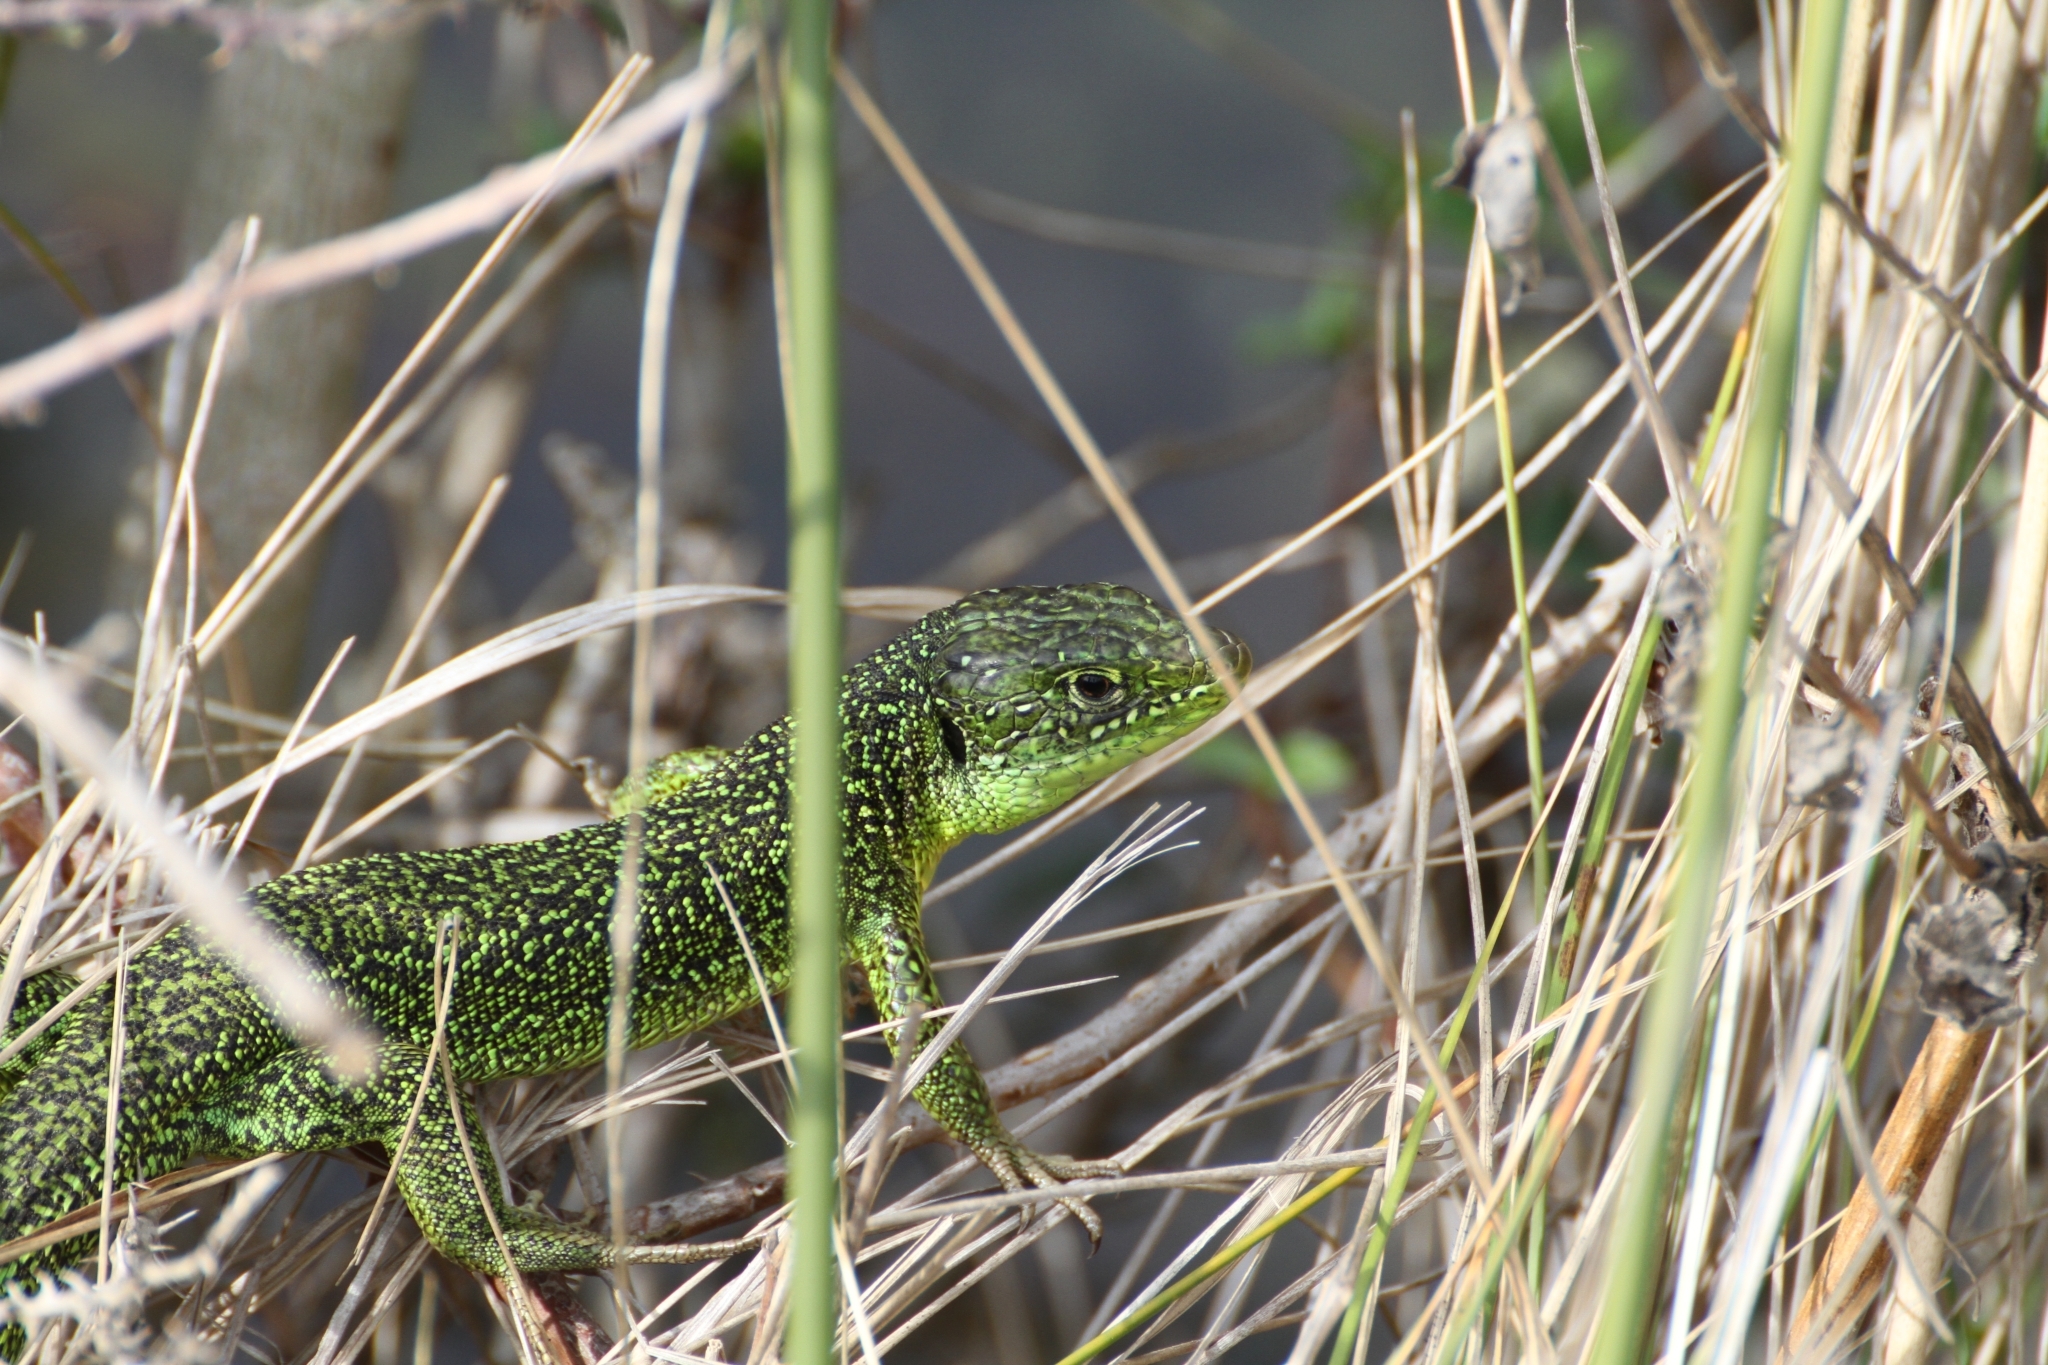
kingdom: Animalia
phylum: Chordata
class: Squamata
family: Lacertidae
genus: Lacerta
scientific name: Lacerta bilineata
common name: Western green lizard
